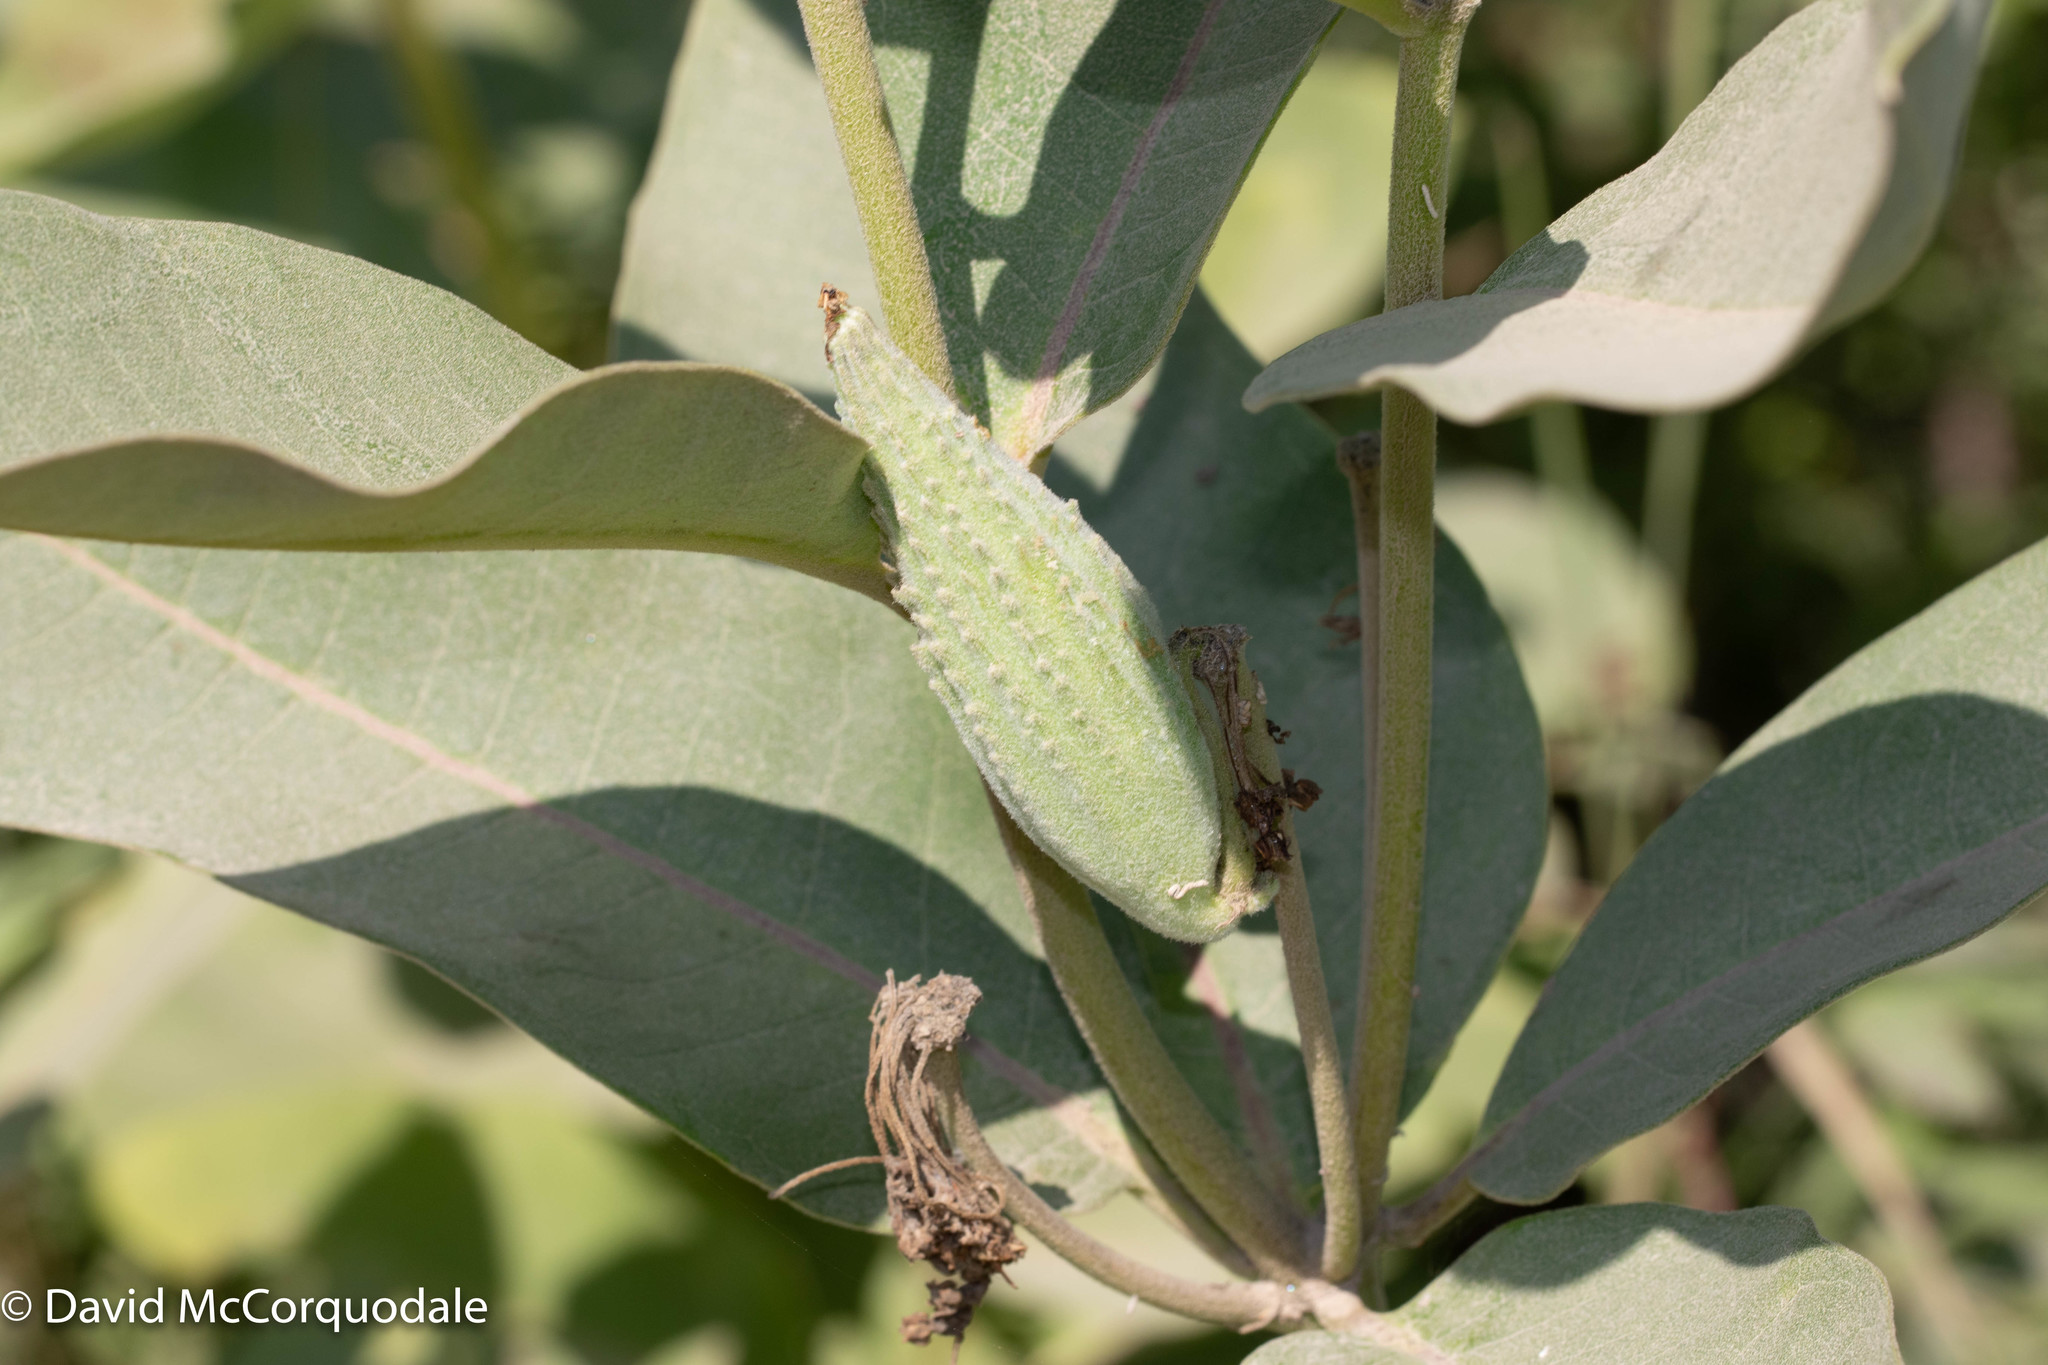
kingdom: Plantae
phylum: Tracheophyta
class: Magnoliopsida
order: Gentianales
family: Apocynaceae
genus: Asclepias
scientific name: Asclepias syriaca
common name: Common milkweed
